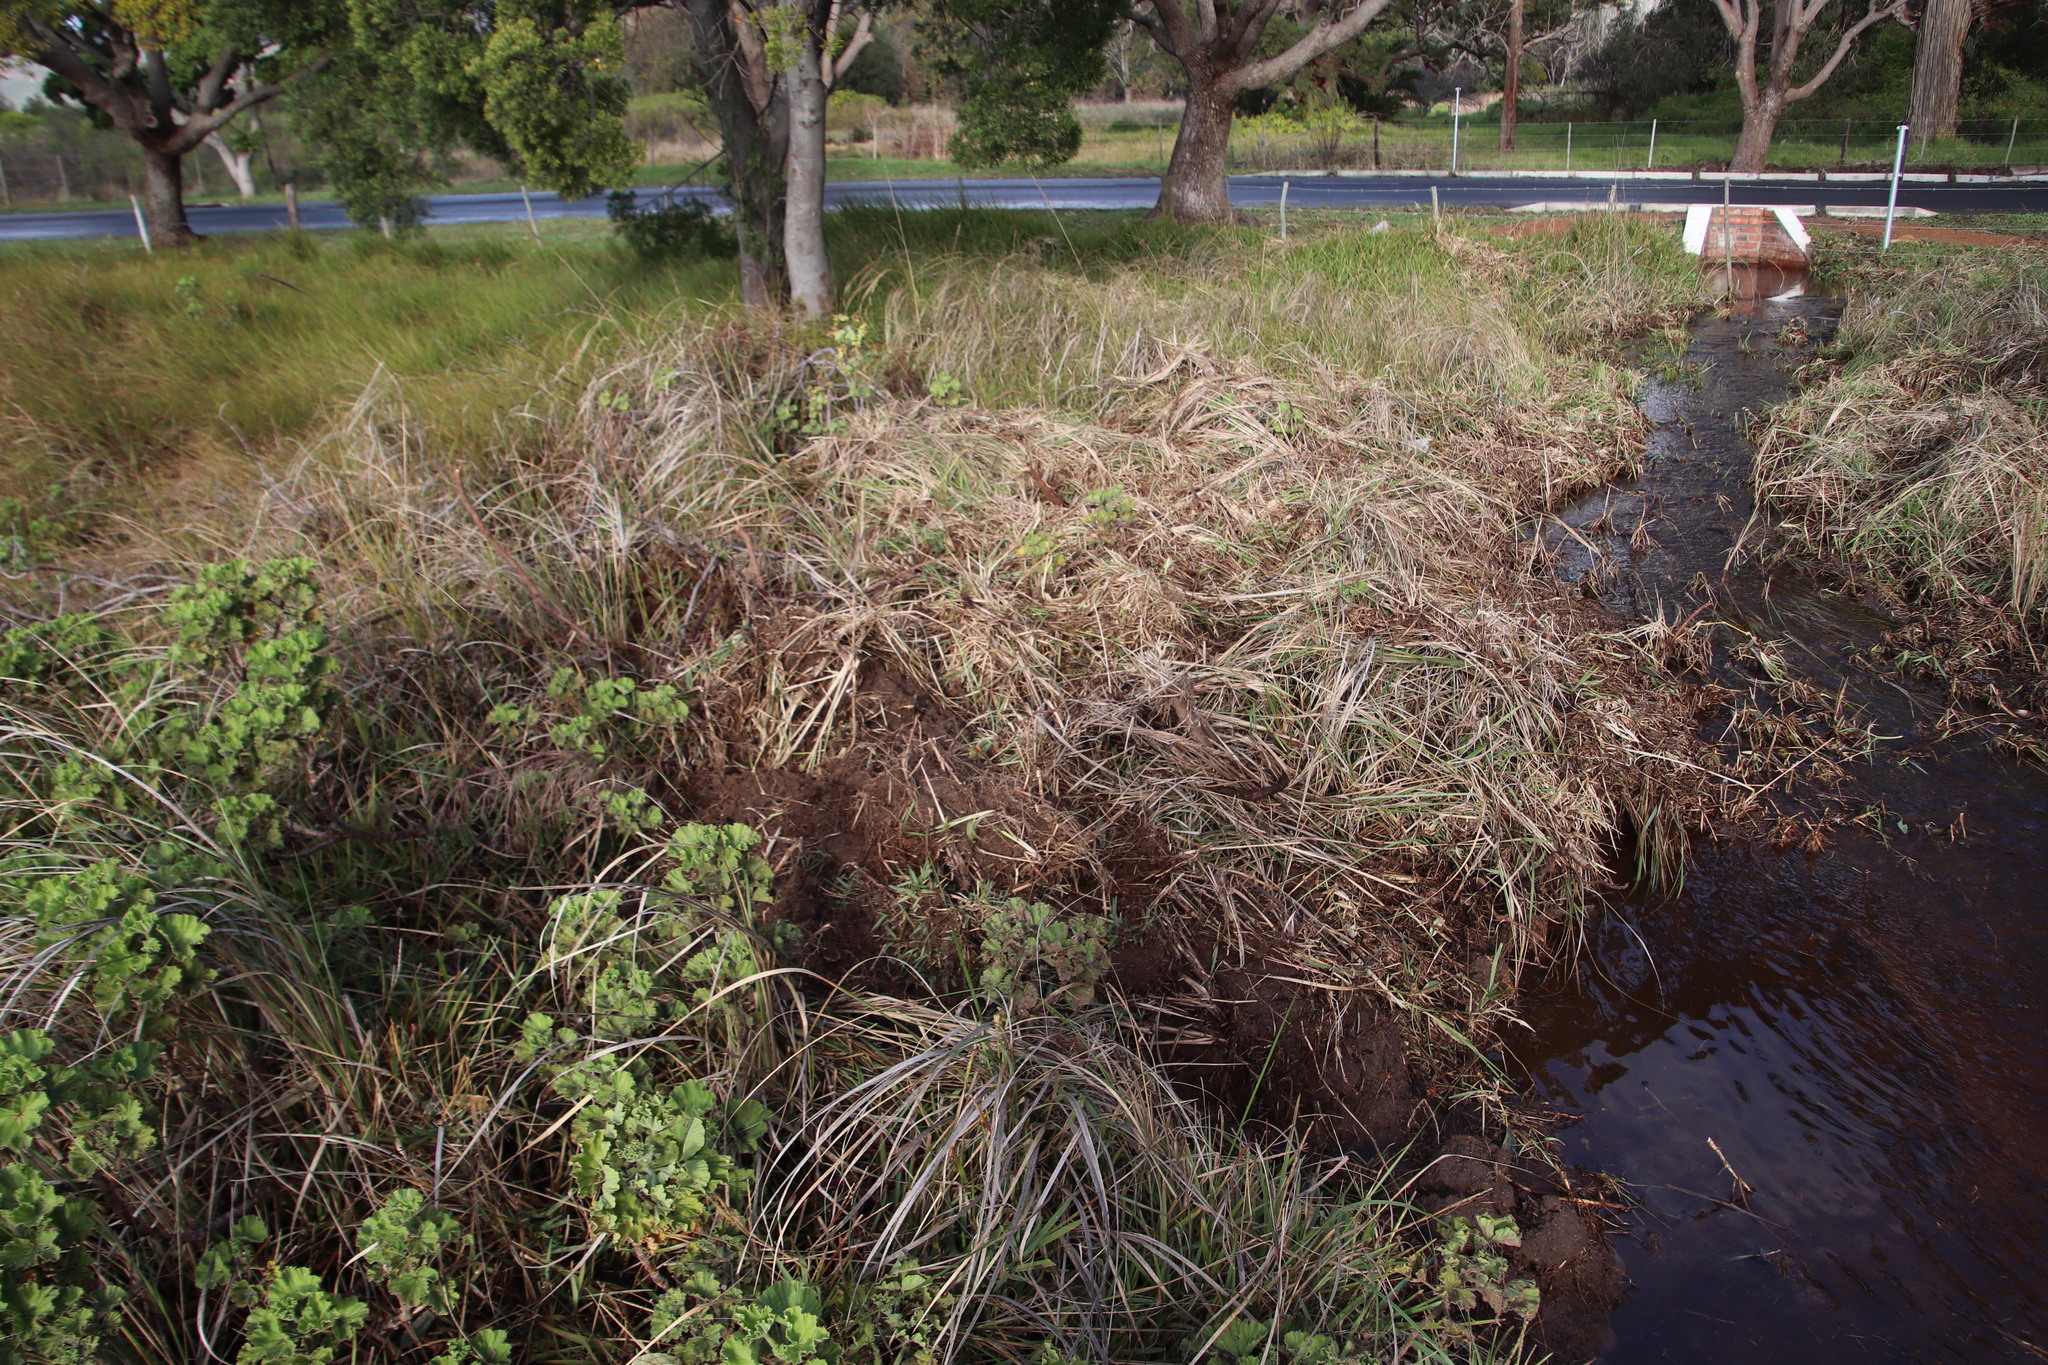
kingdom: Plantae
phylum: Tracheophyta
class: Magnoliopsida
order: Ericales
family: Ericaceae
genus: Erica
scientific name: Erica verticillata
